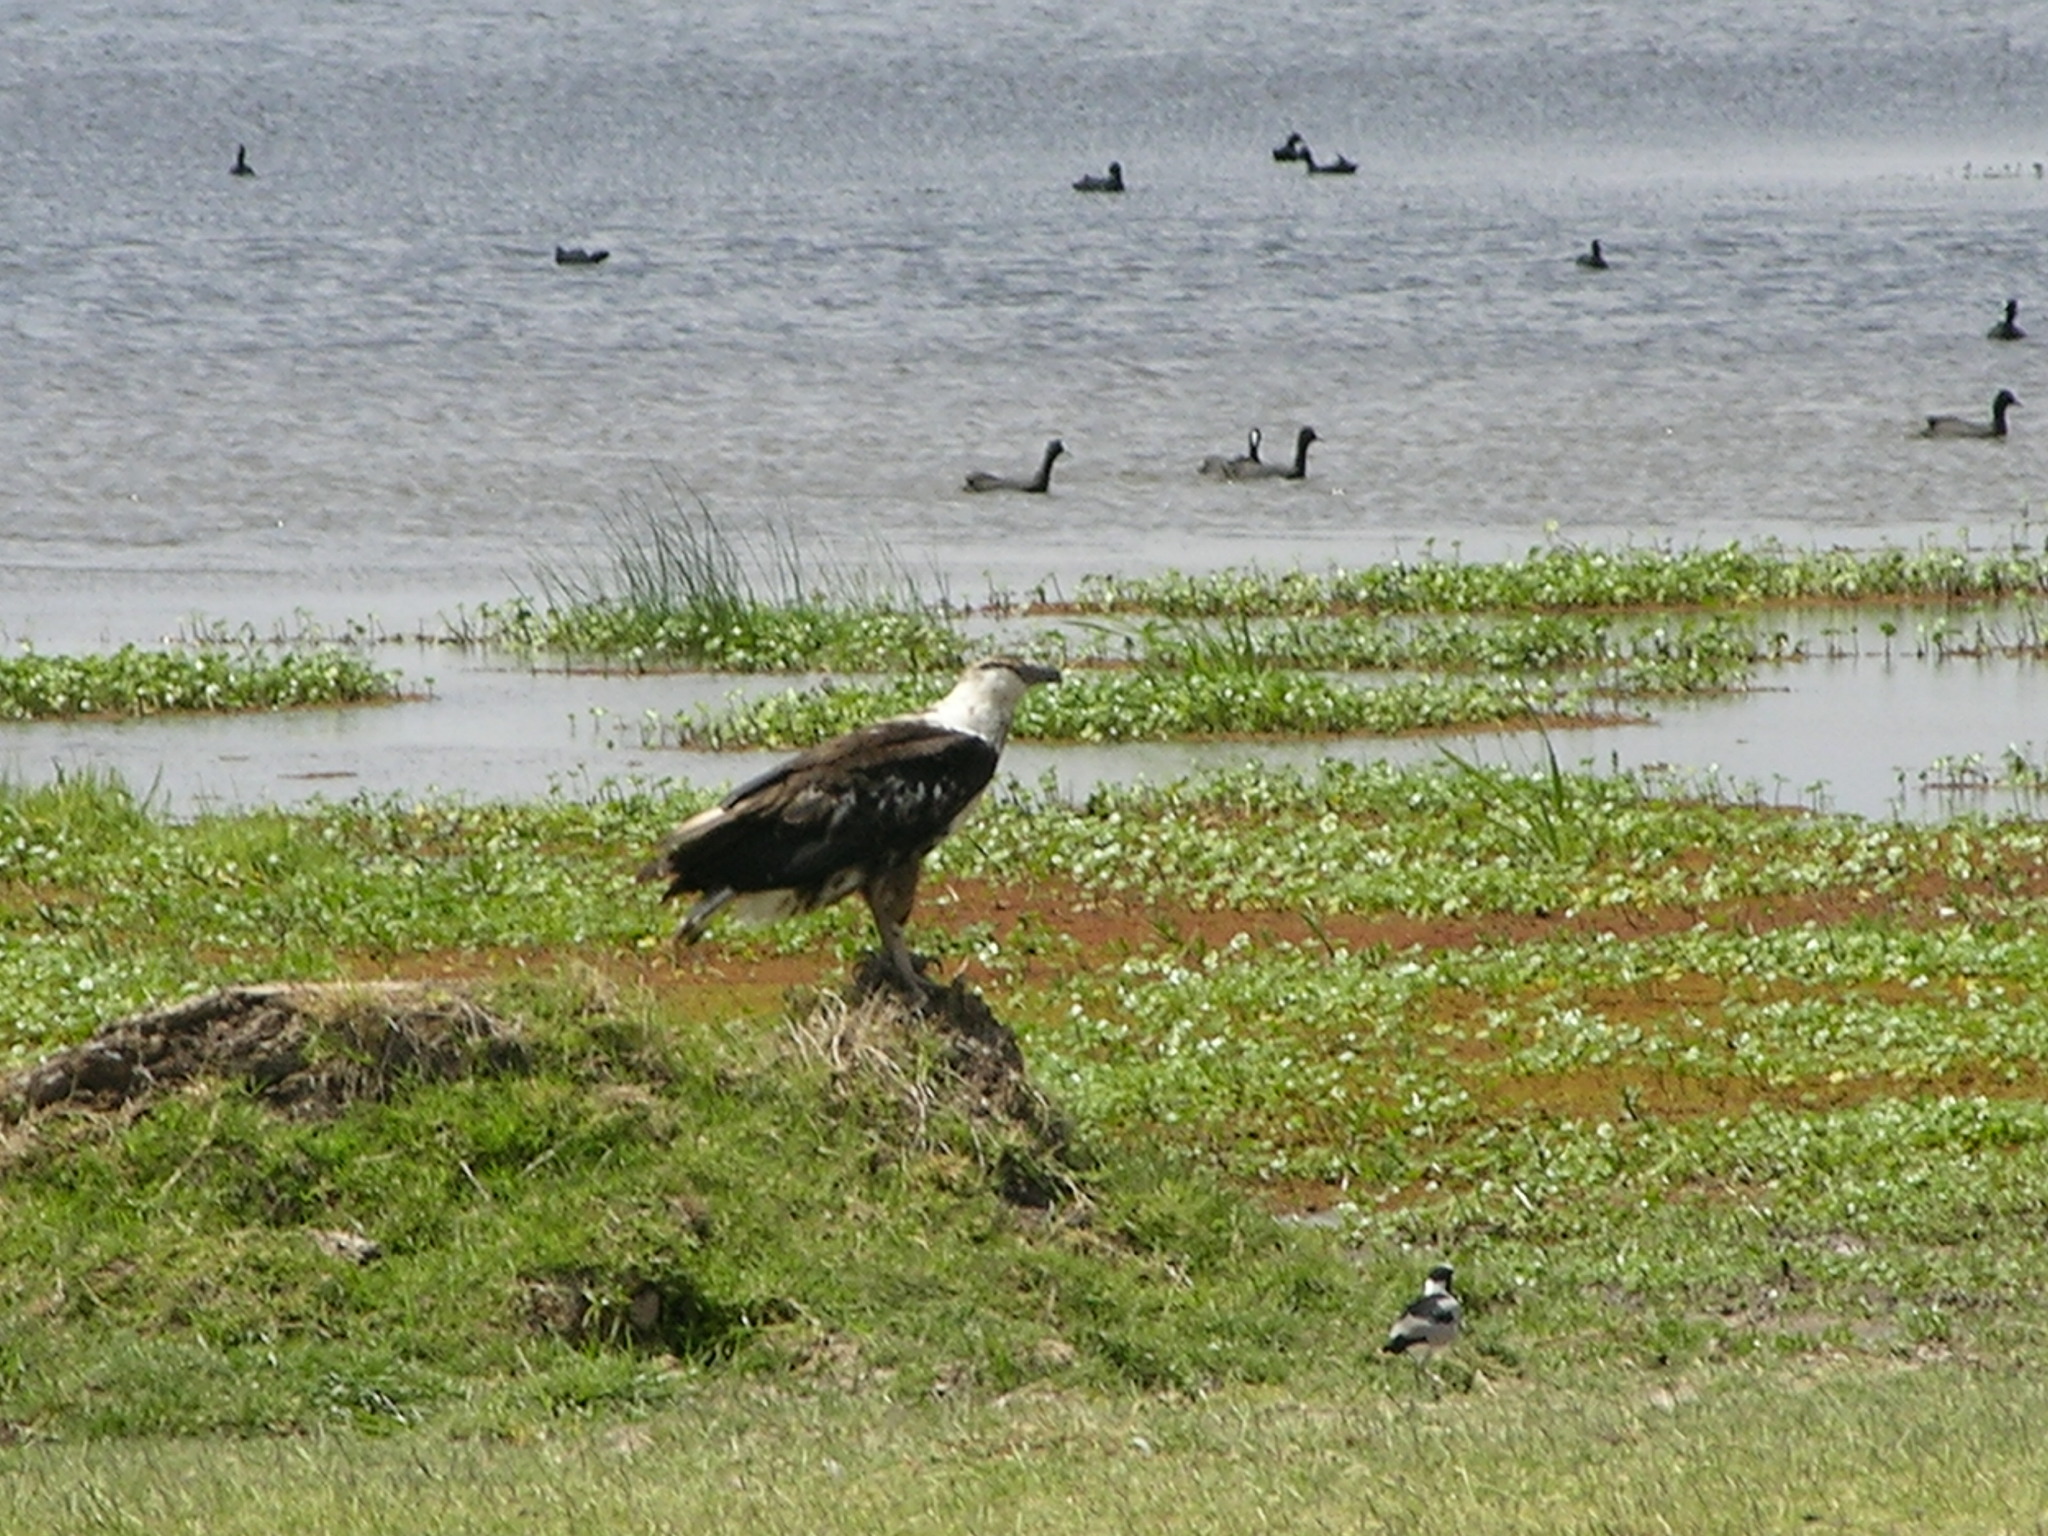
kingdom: Animalia
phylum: Chordata
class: Aves
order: Accipitriformes
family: Accipitridae
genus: Haliaeetus
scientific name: Haliaeetus vocifer
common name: African fish eagle
